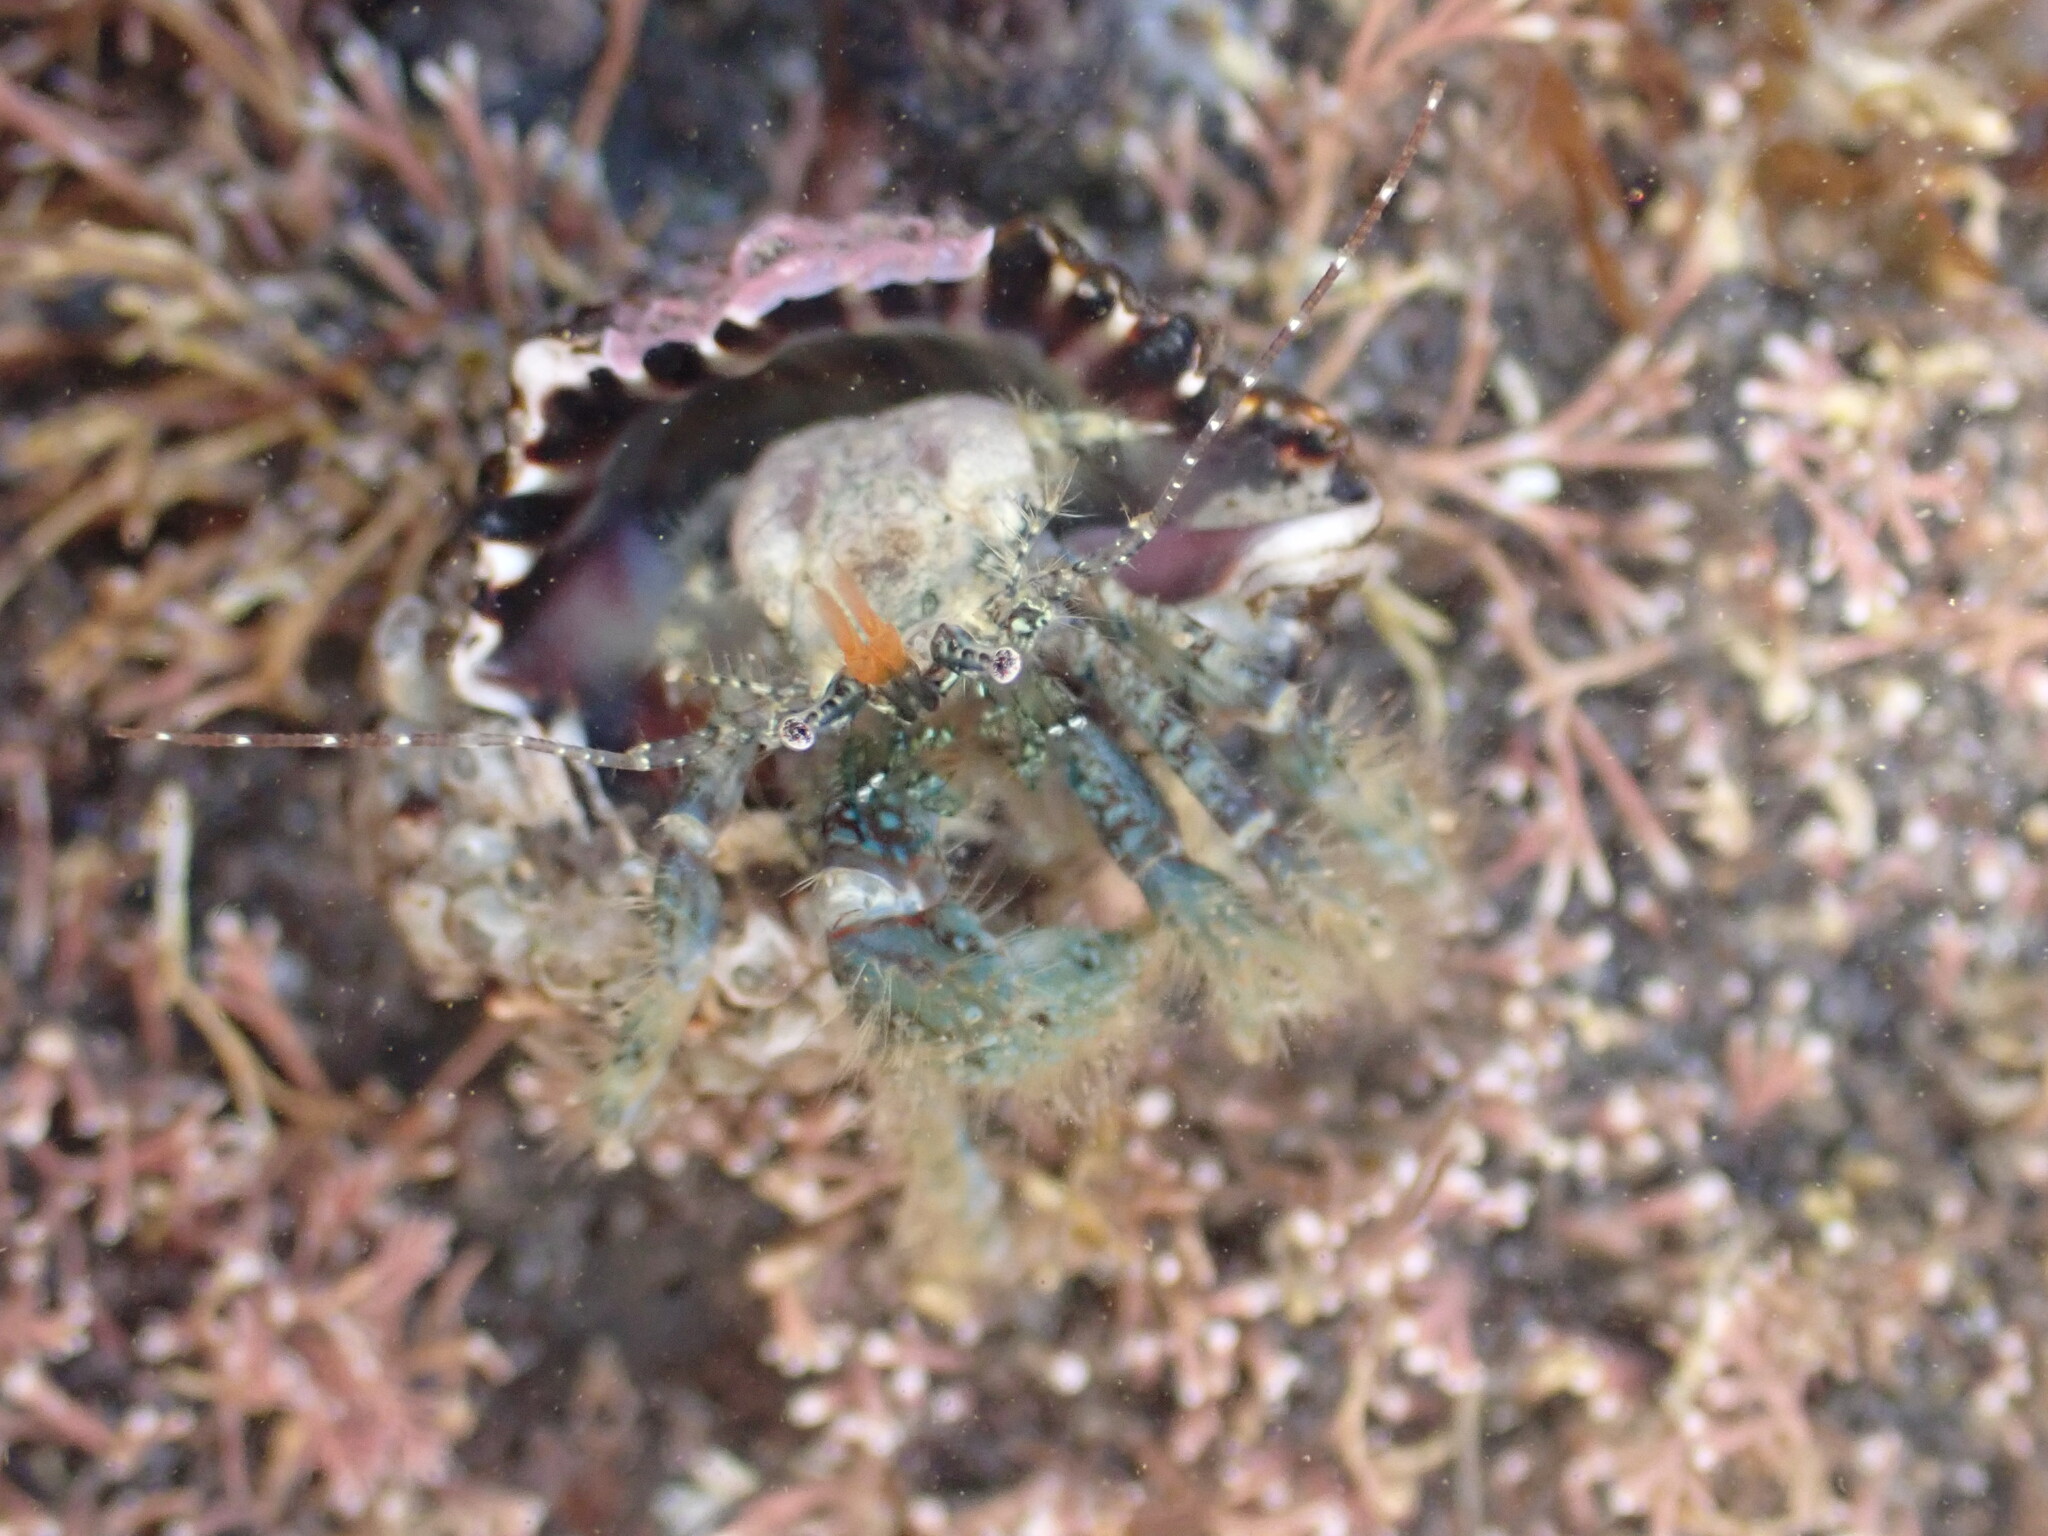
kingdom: Animalia
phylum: Arthropoda
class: Malacostraca
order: Decapoda
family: Paguridae
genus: Pagurus
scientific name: Pagurus traversi
